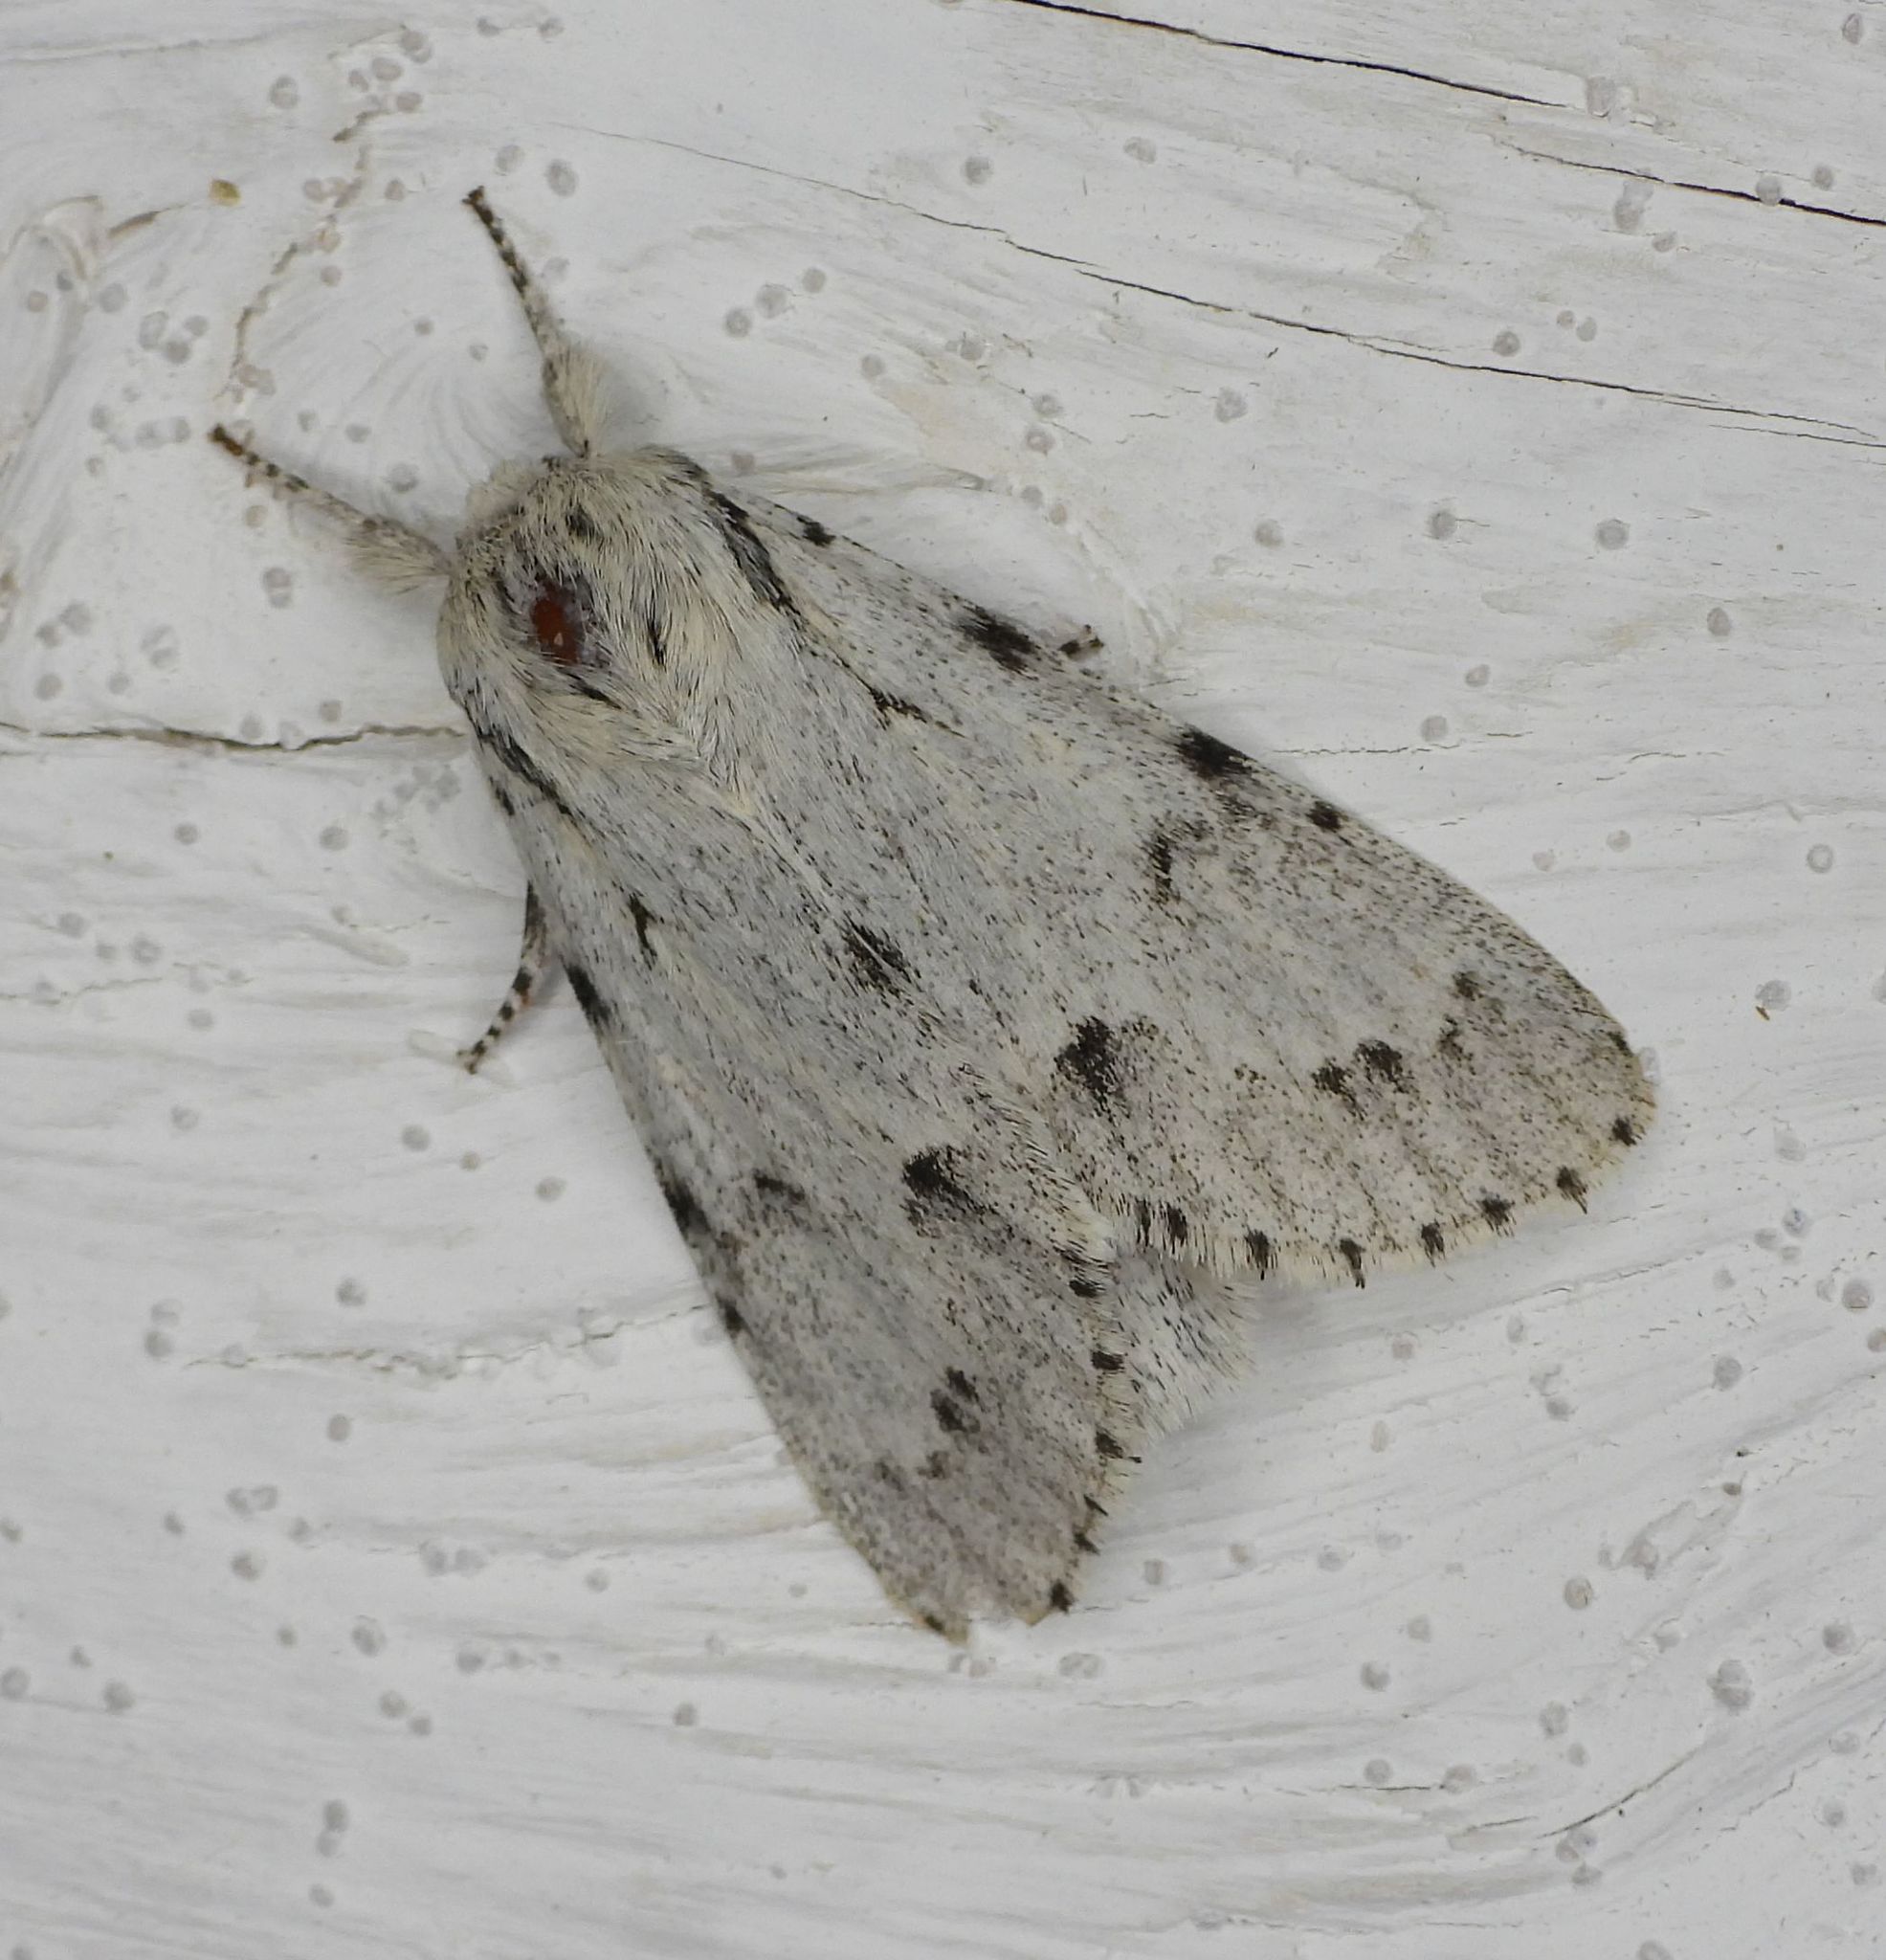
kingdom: Animalia
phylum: Arthropoda
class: Insecta
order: Lepidoptera
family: Noctuidae
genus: Acronicta
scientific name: Acronicta lepusculina
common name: Cottonwood dagger
